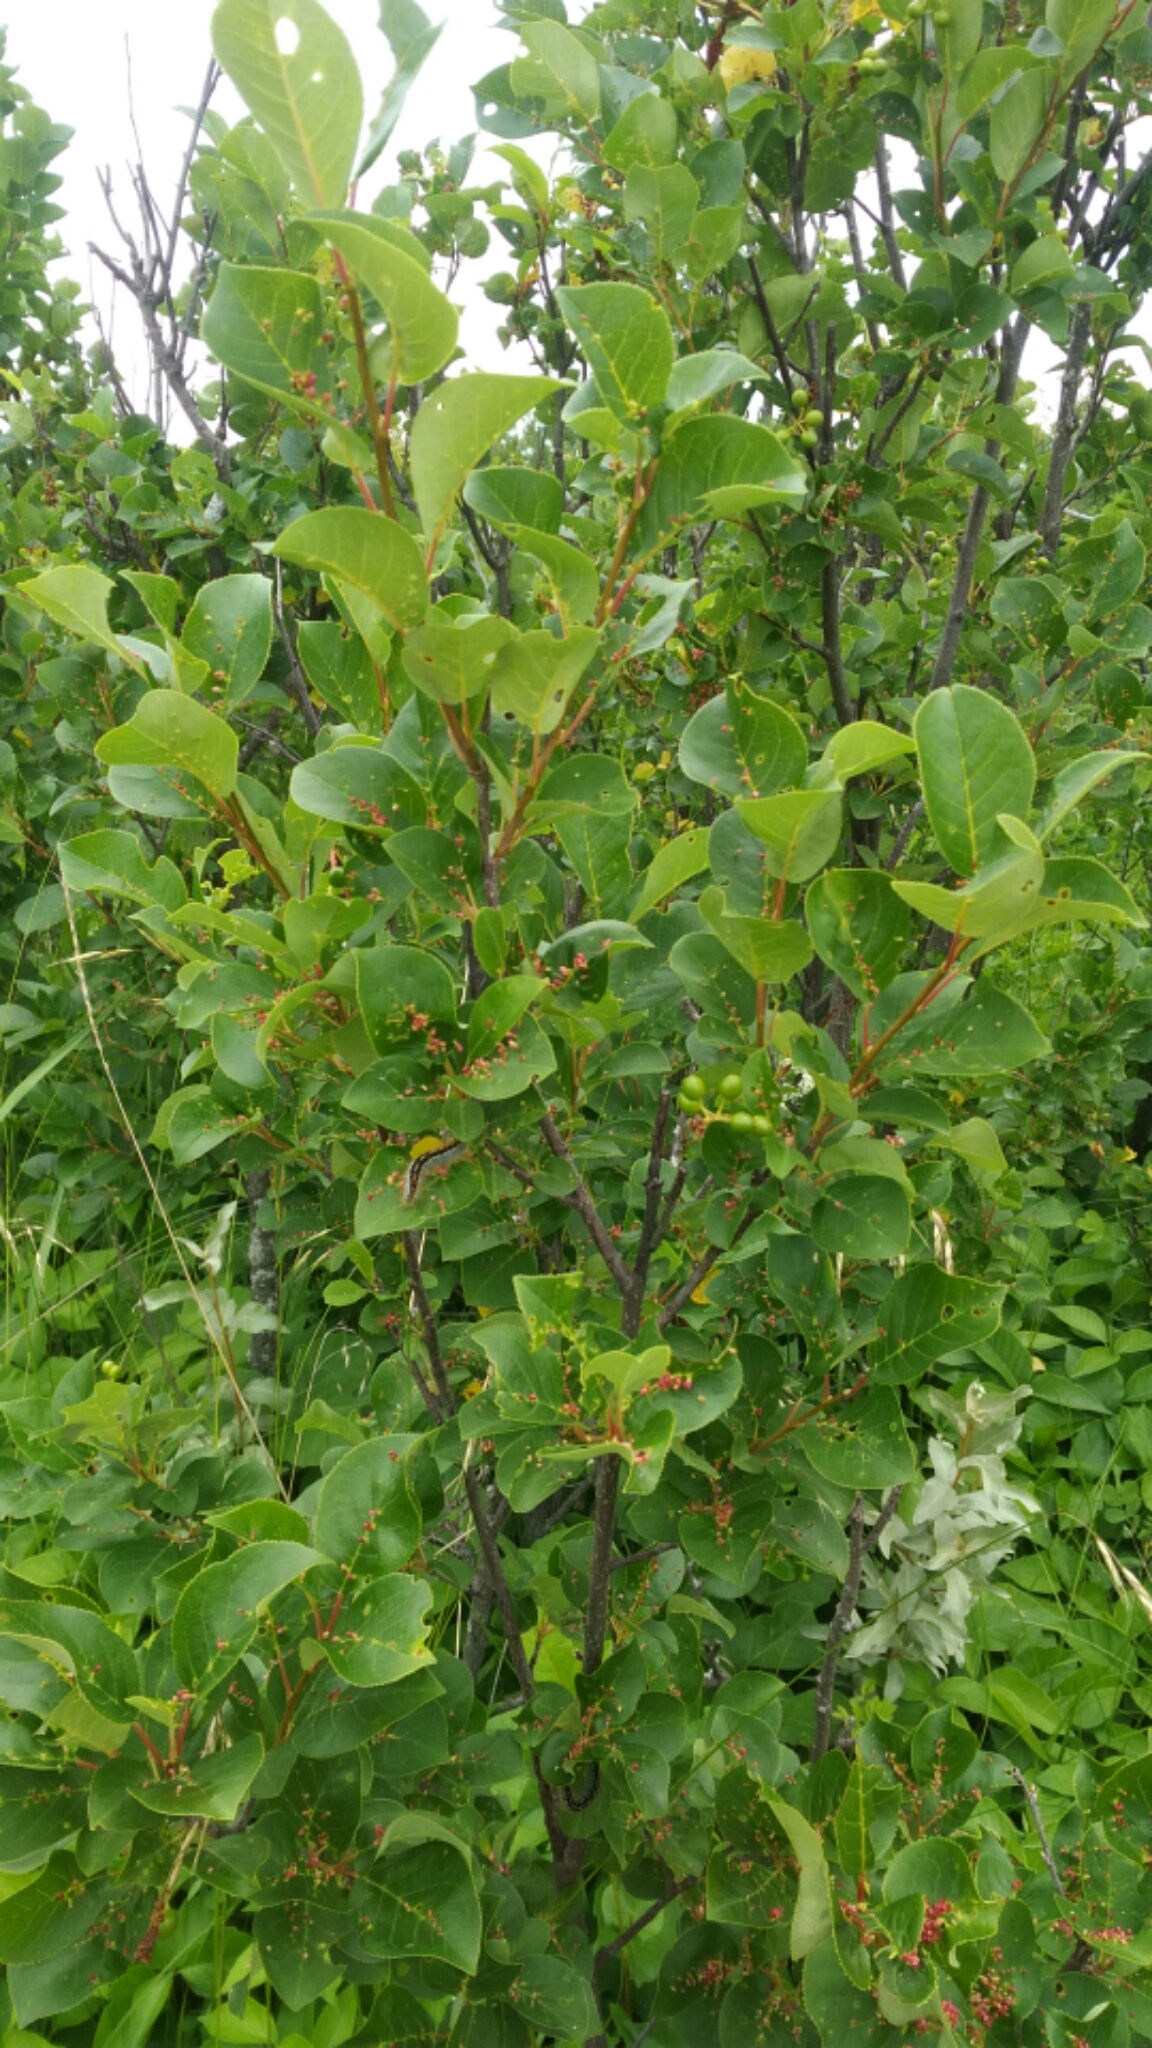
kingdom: Plantae
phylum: Tracheophyta
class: Magnoliopsida
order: Rosales
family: Rosaceae
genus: Prunus
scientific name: Prunus virginiana
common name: Chokecherry
